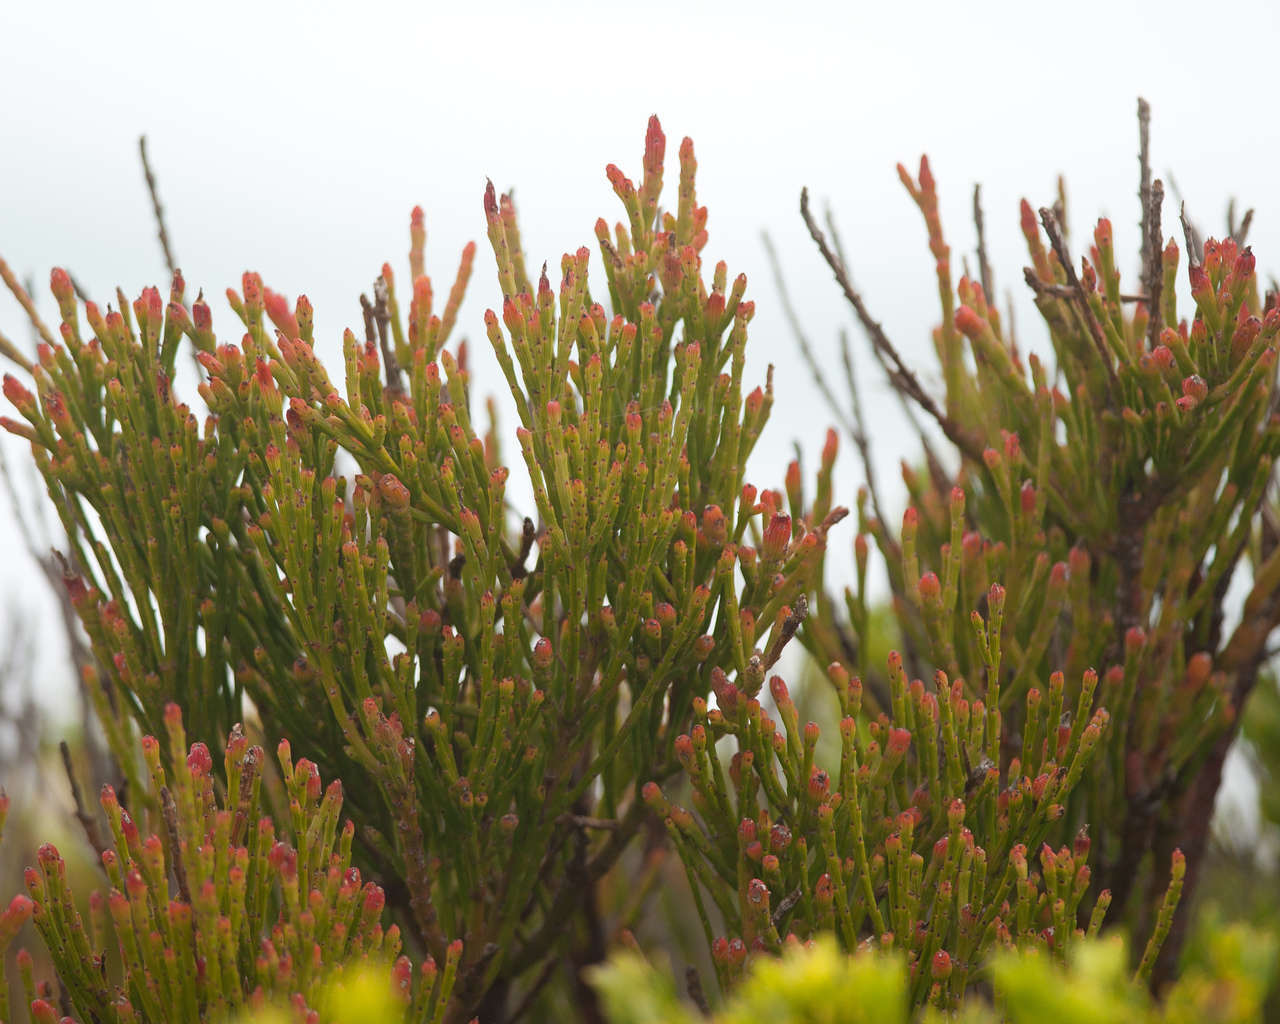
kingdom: Plantae
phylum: Tracheophyta
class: Magnoliopsida
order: Santalales
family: Santalaceae
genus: Exocarpos
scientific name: Exocarpos syrticola
